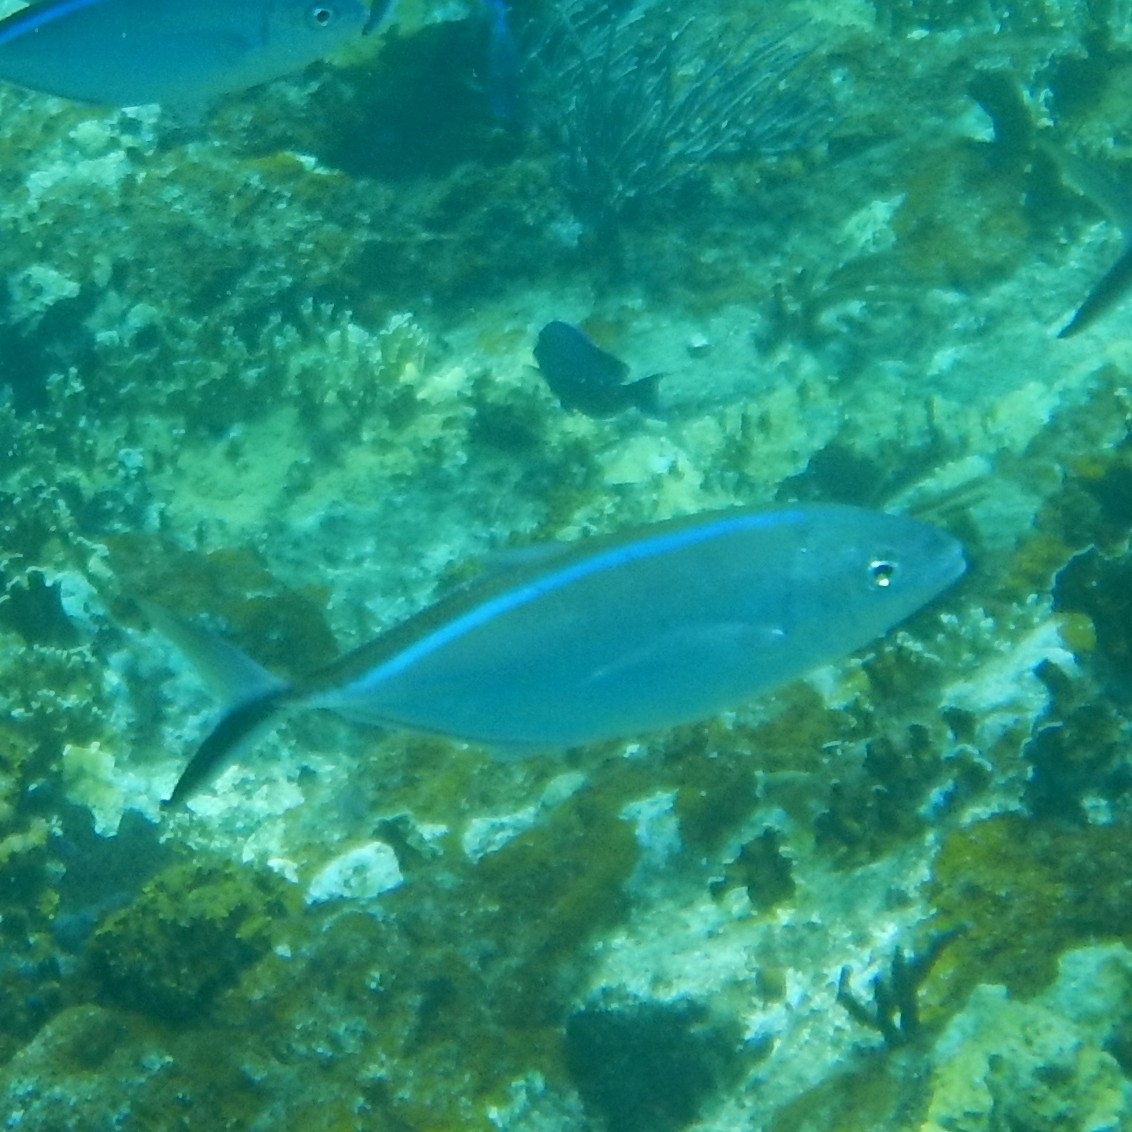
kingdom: Animalia
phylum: Chordata
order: Perciformes
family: Carangidae
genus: Caranx
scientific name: Caranx ruber
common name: Bar jack
